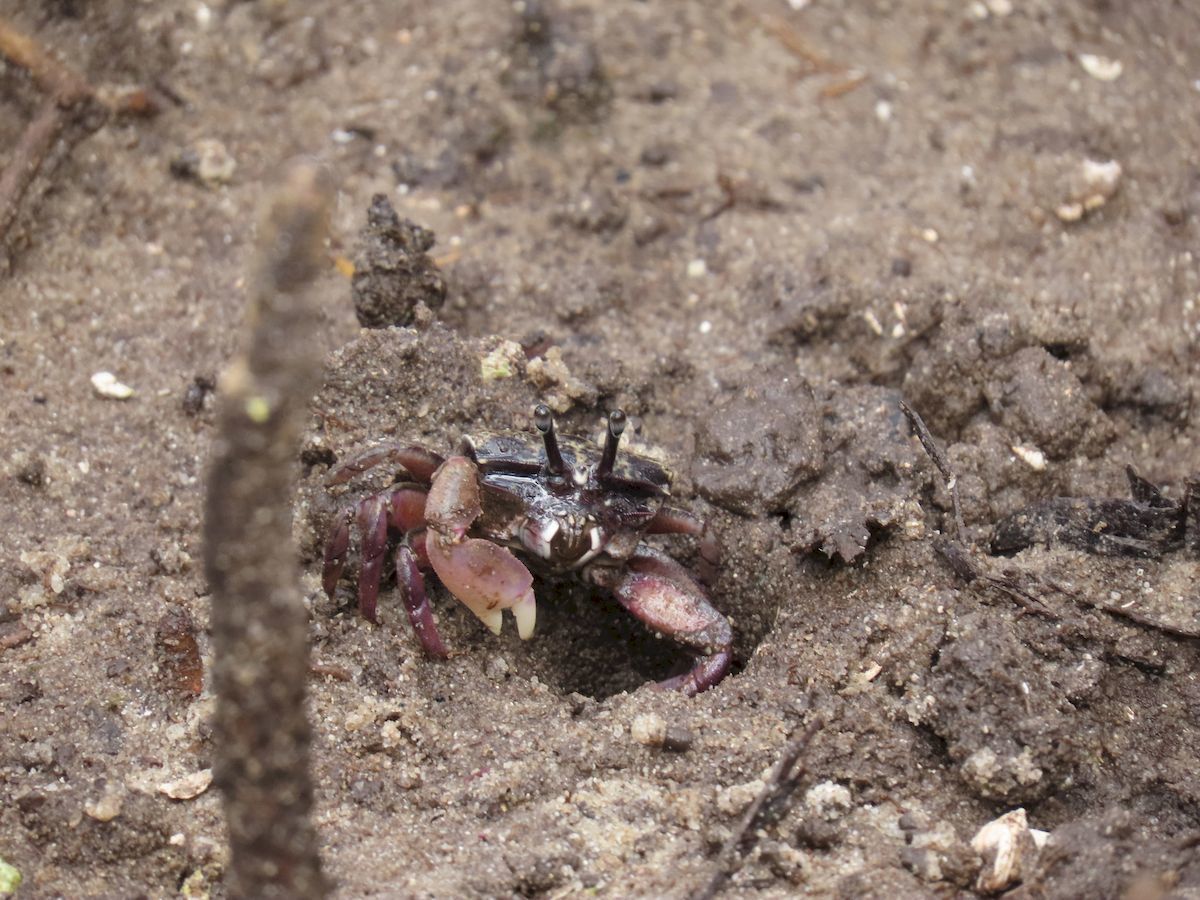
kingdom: Animalia
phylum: Arthropoda
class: Malacostraca
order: Decapoda
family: Heloeciidae
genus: Heloecius
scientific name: Heloecius cordiformis
